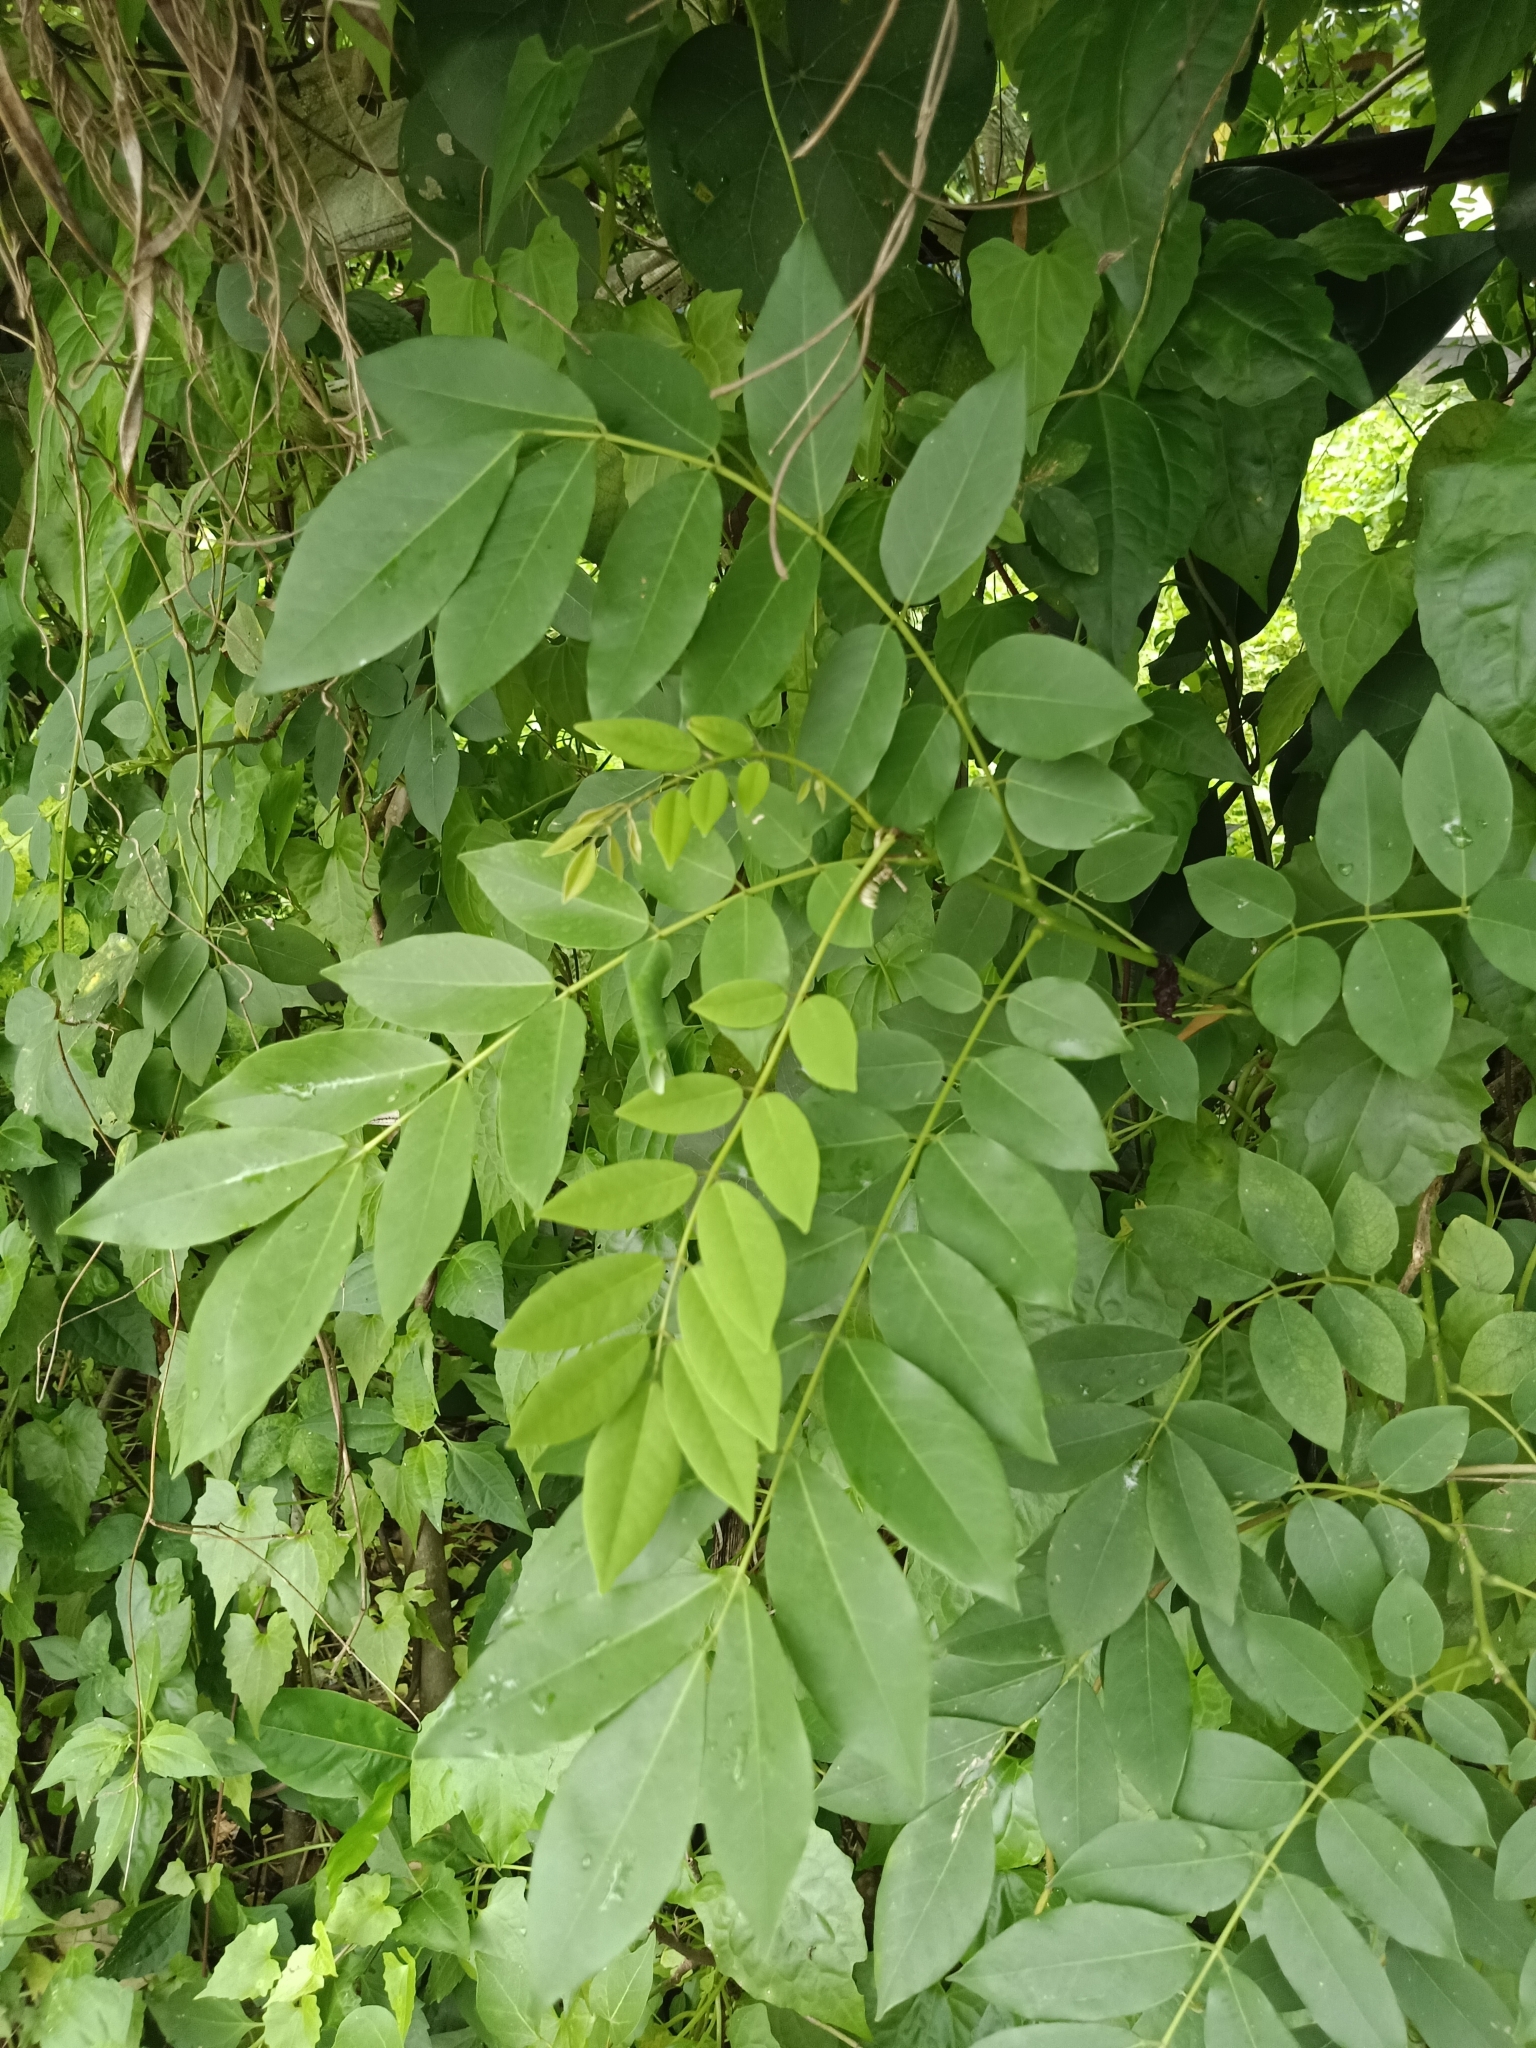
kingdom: Plantae
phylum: Tracheophyta
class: Magnoliopsida
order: Fabales
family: Fabaceae
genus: Gliricidia
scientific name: Gliricidia sepium
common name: Quickstick
